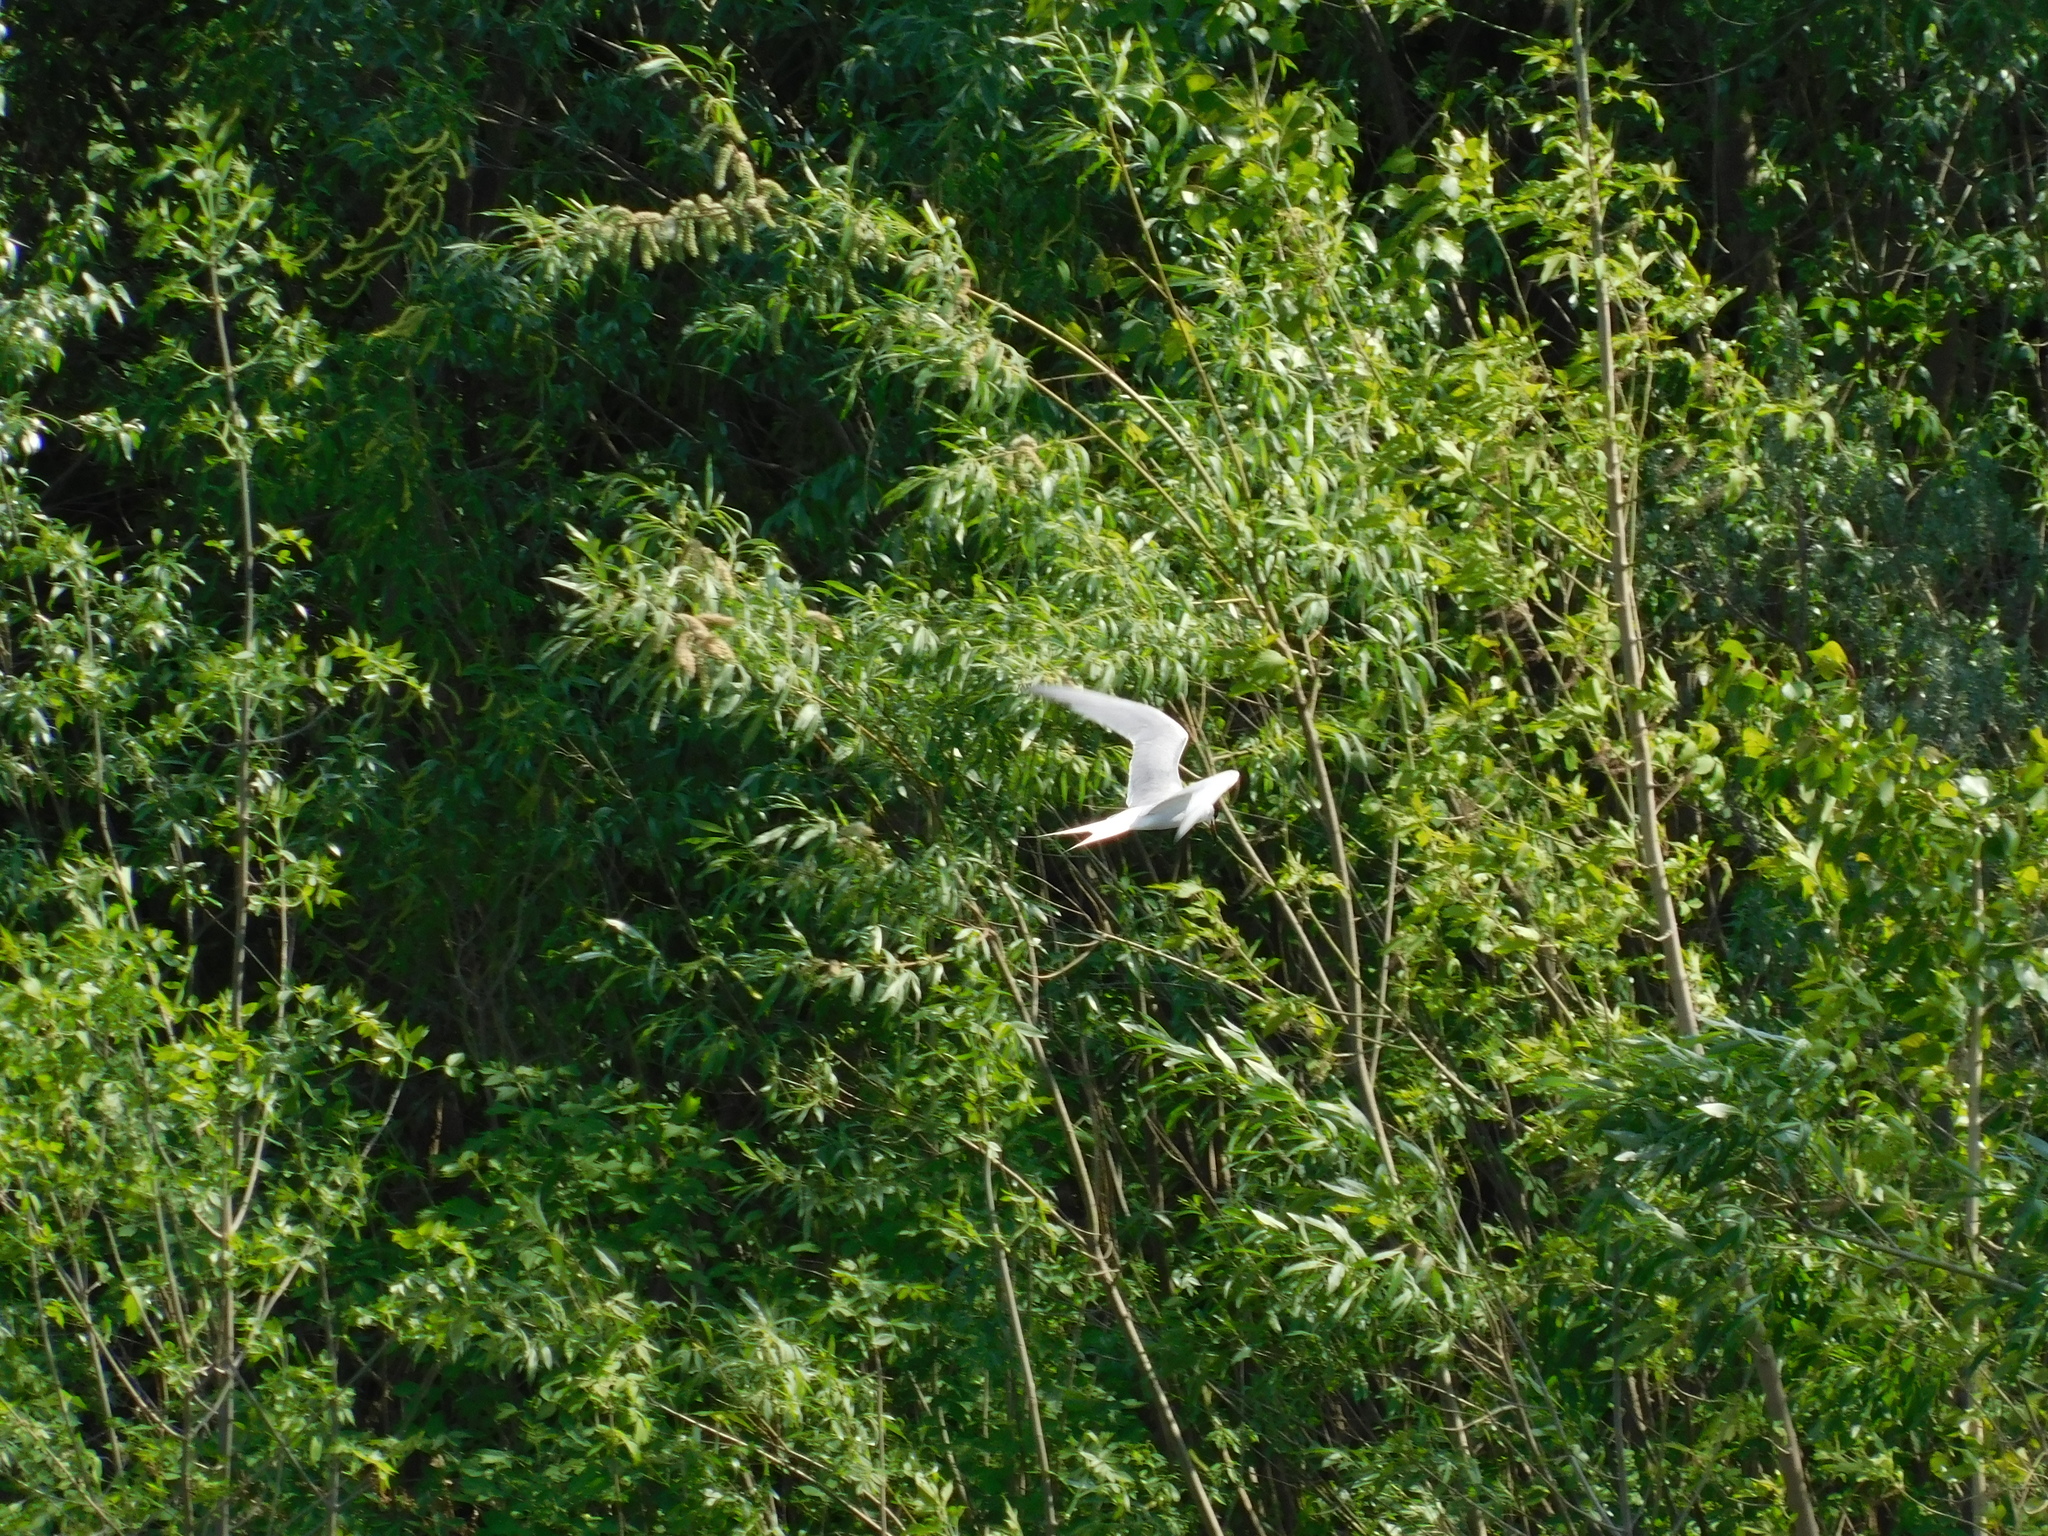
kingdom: Animalia
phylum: Chordata
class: Aves
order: Charadriiformes
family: Laridae
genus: Sterna
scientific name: Sterna hirundo
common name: Common tern
